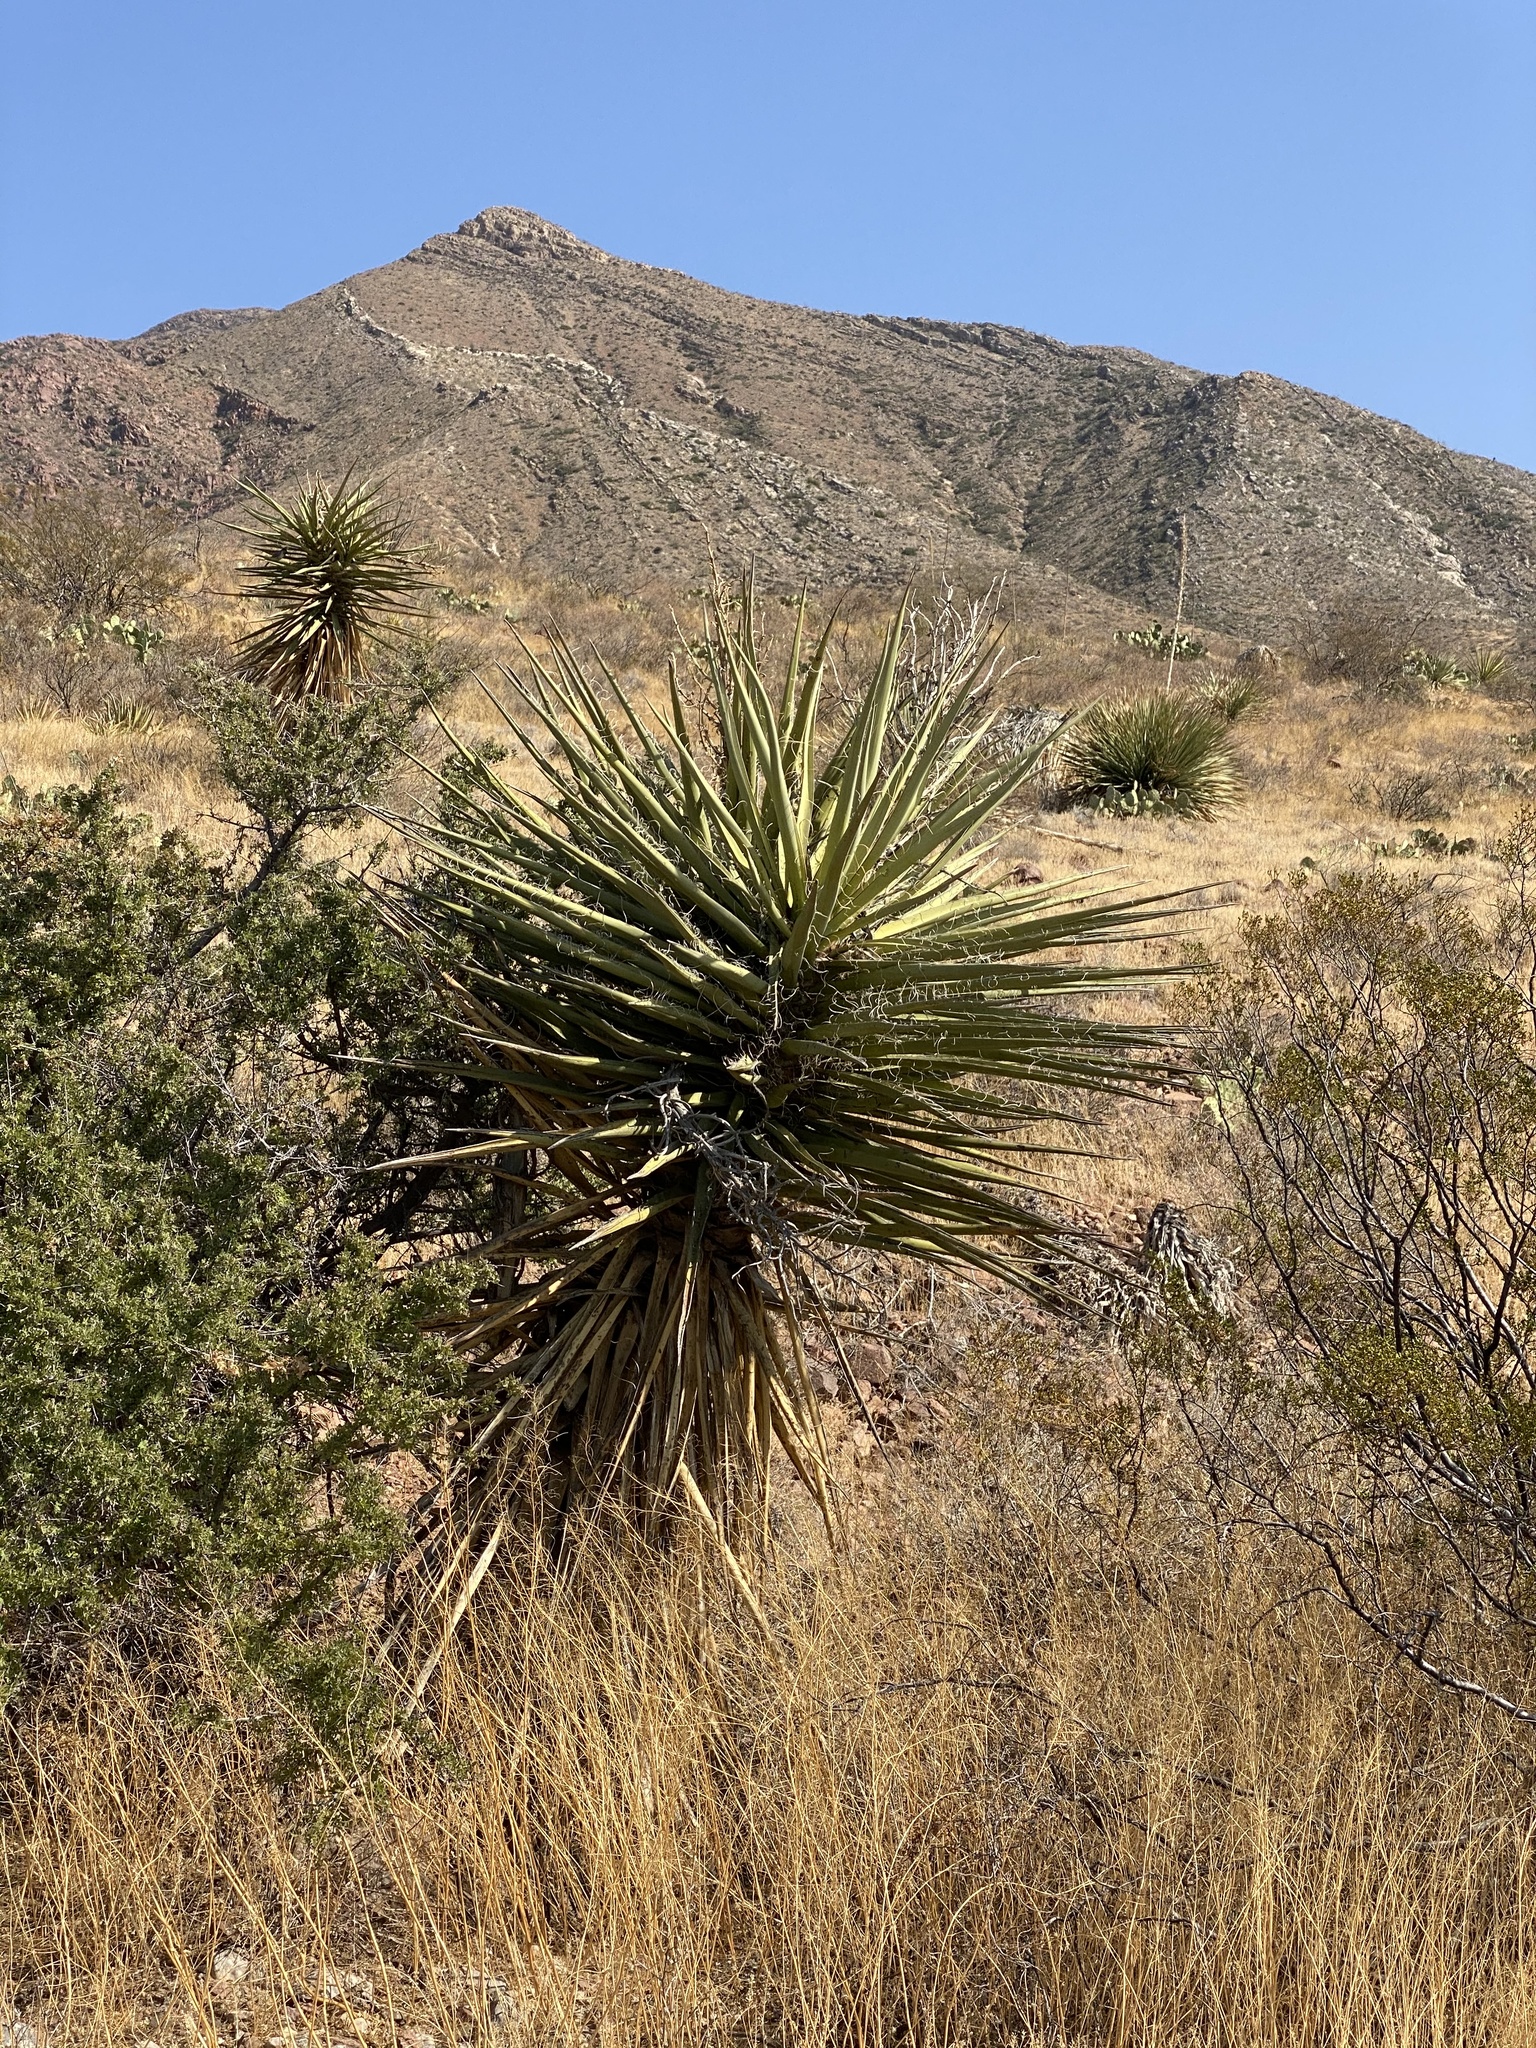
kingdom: Plantae
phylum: Tracheophyta
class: Liliopsida
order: Asparagales
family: Asparagaceae
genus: Yucca
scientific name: Yucca treculiana
